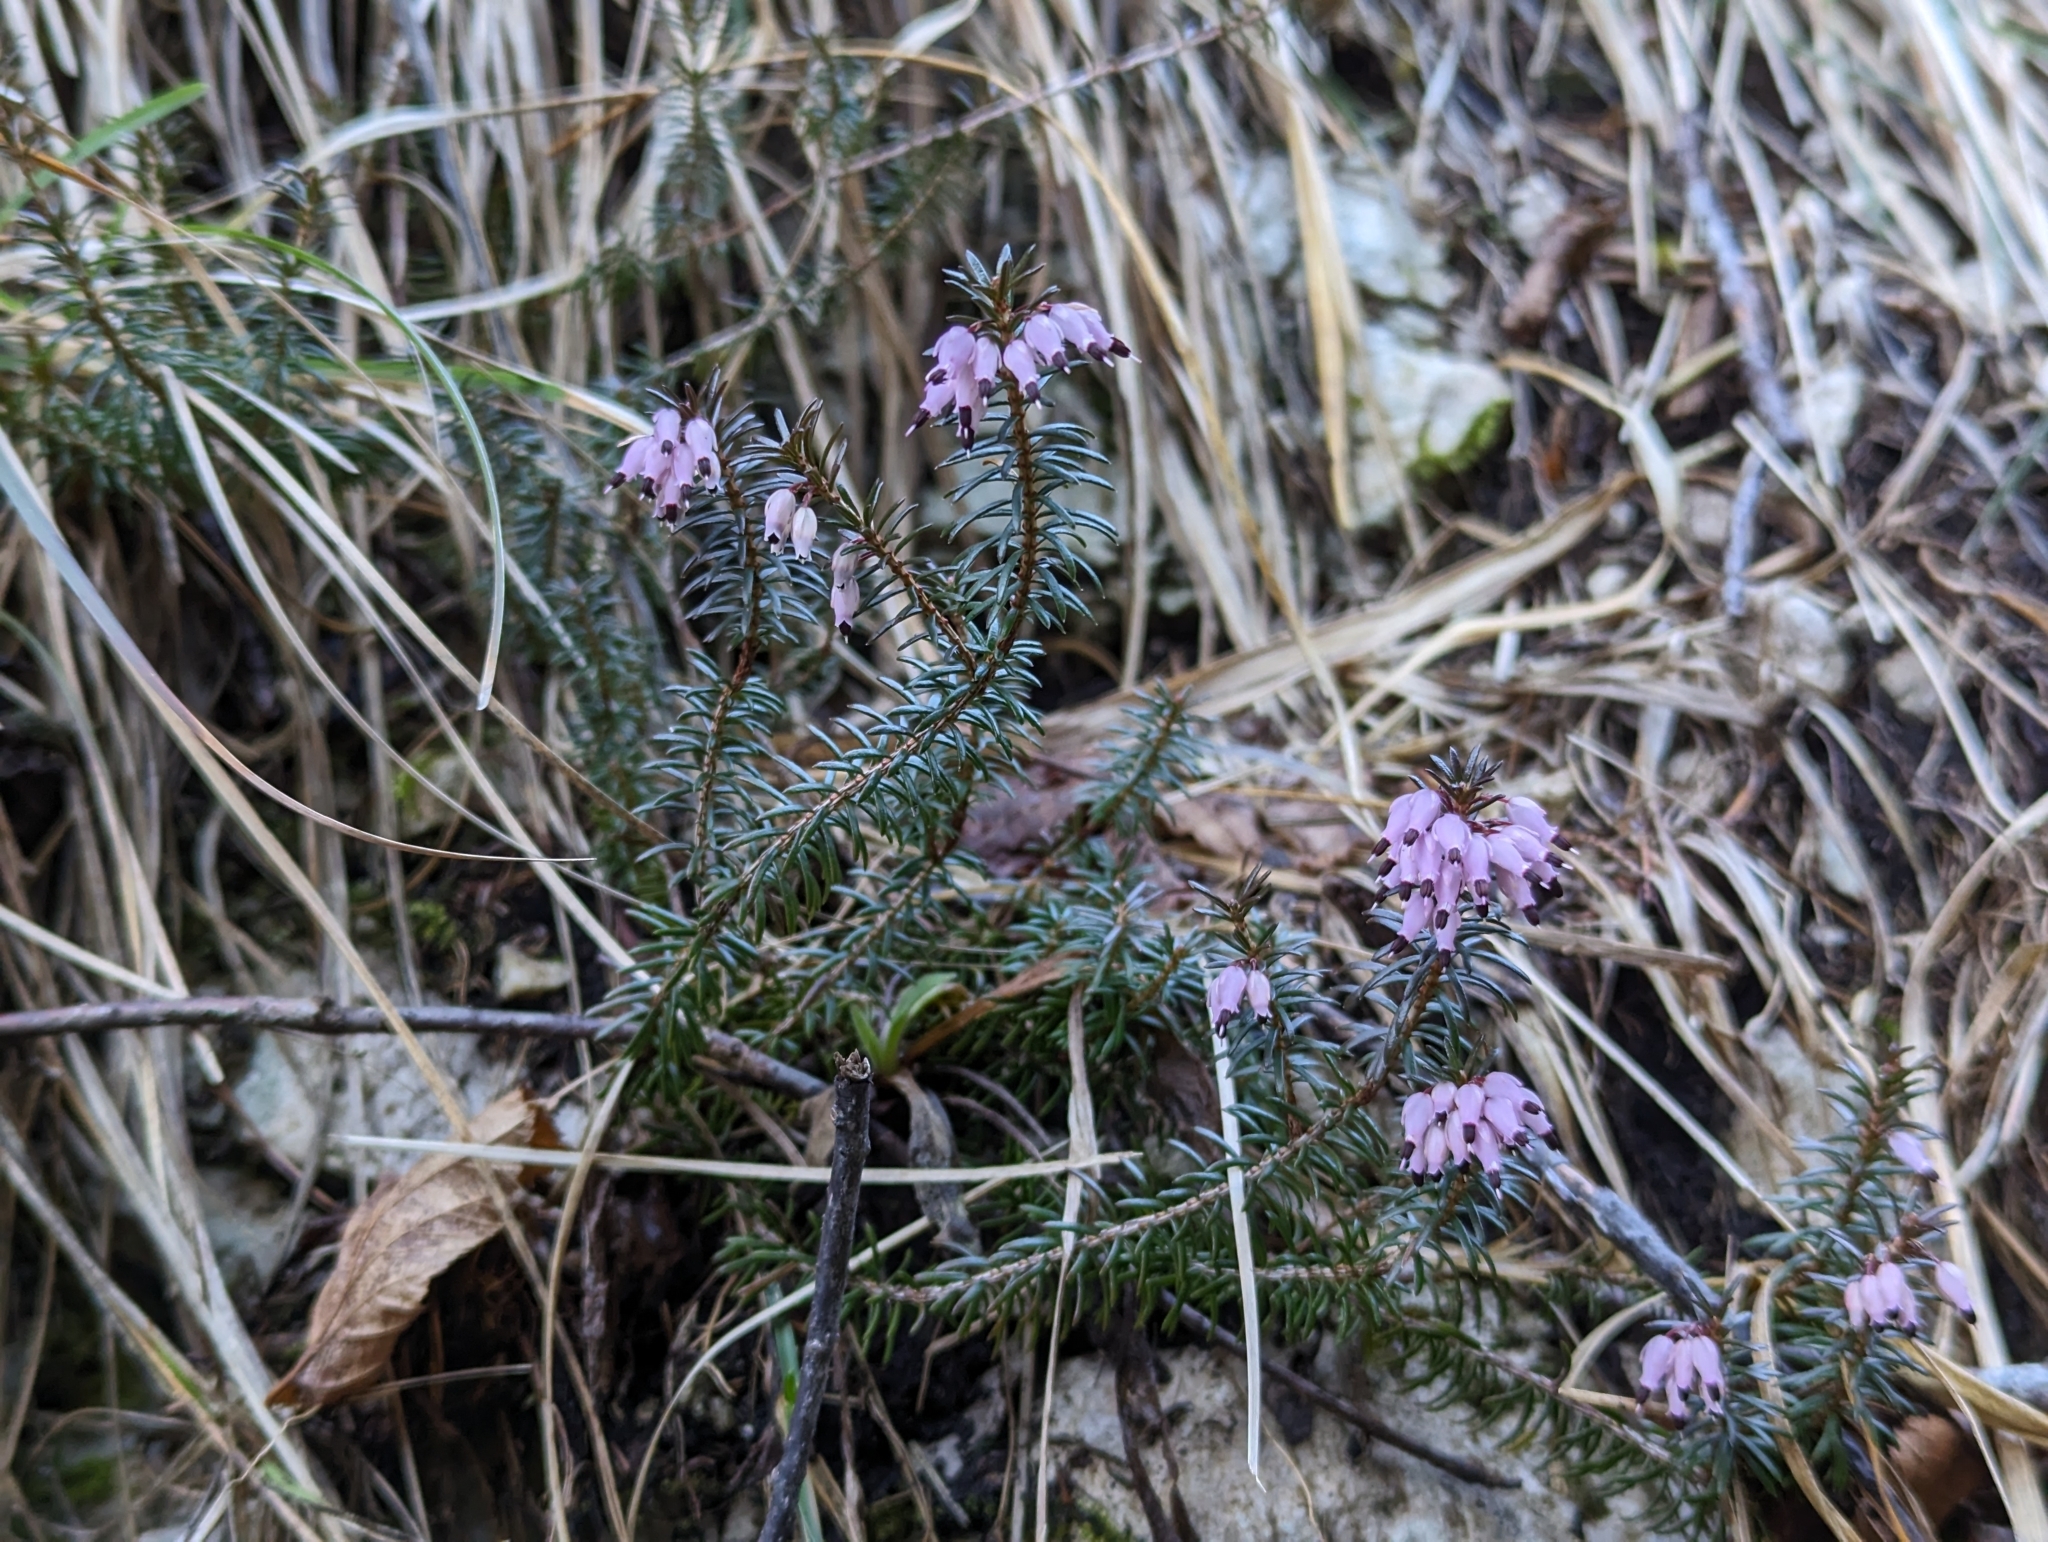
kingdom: Plantae
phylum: Tracheophyta
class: Magnoliopsida
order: Ericales
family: Ericaceae
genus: Erica
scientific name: Erica carnea
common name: Winter heath
